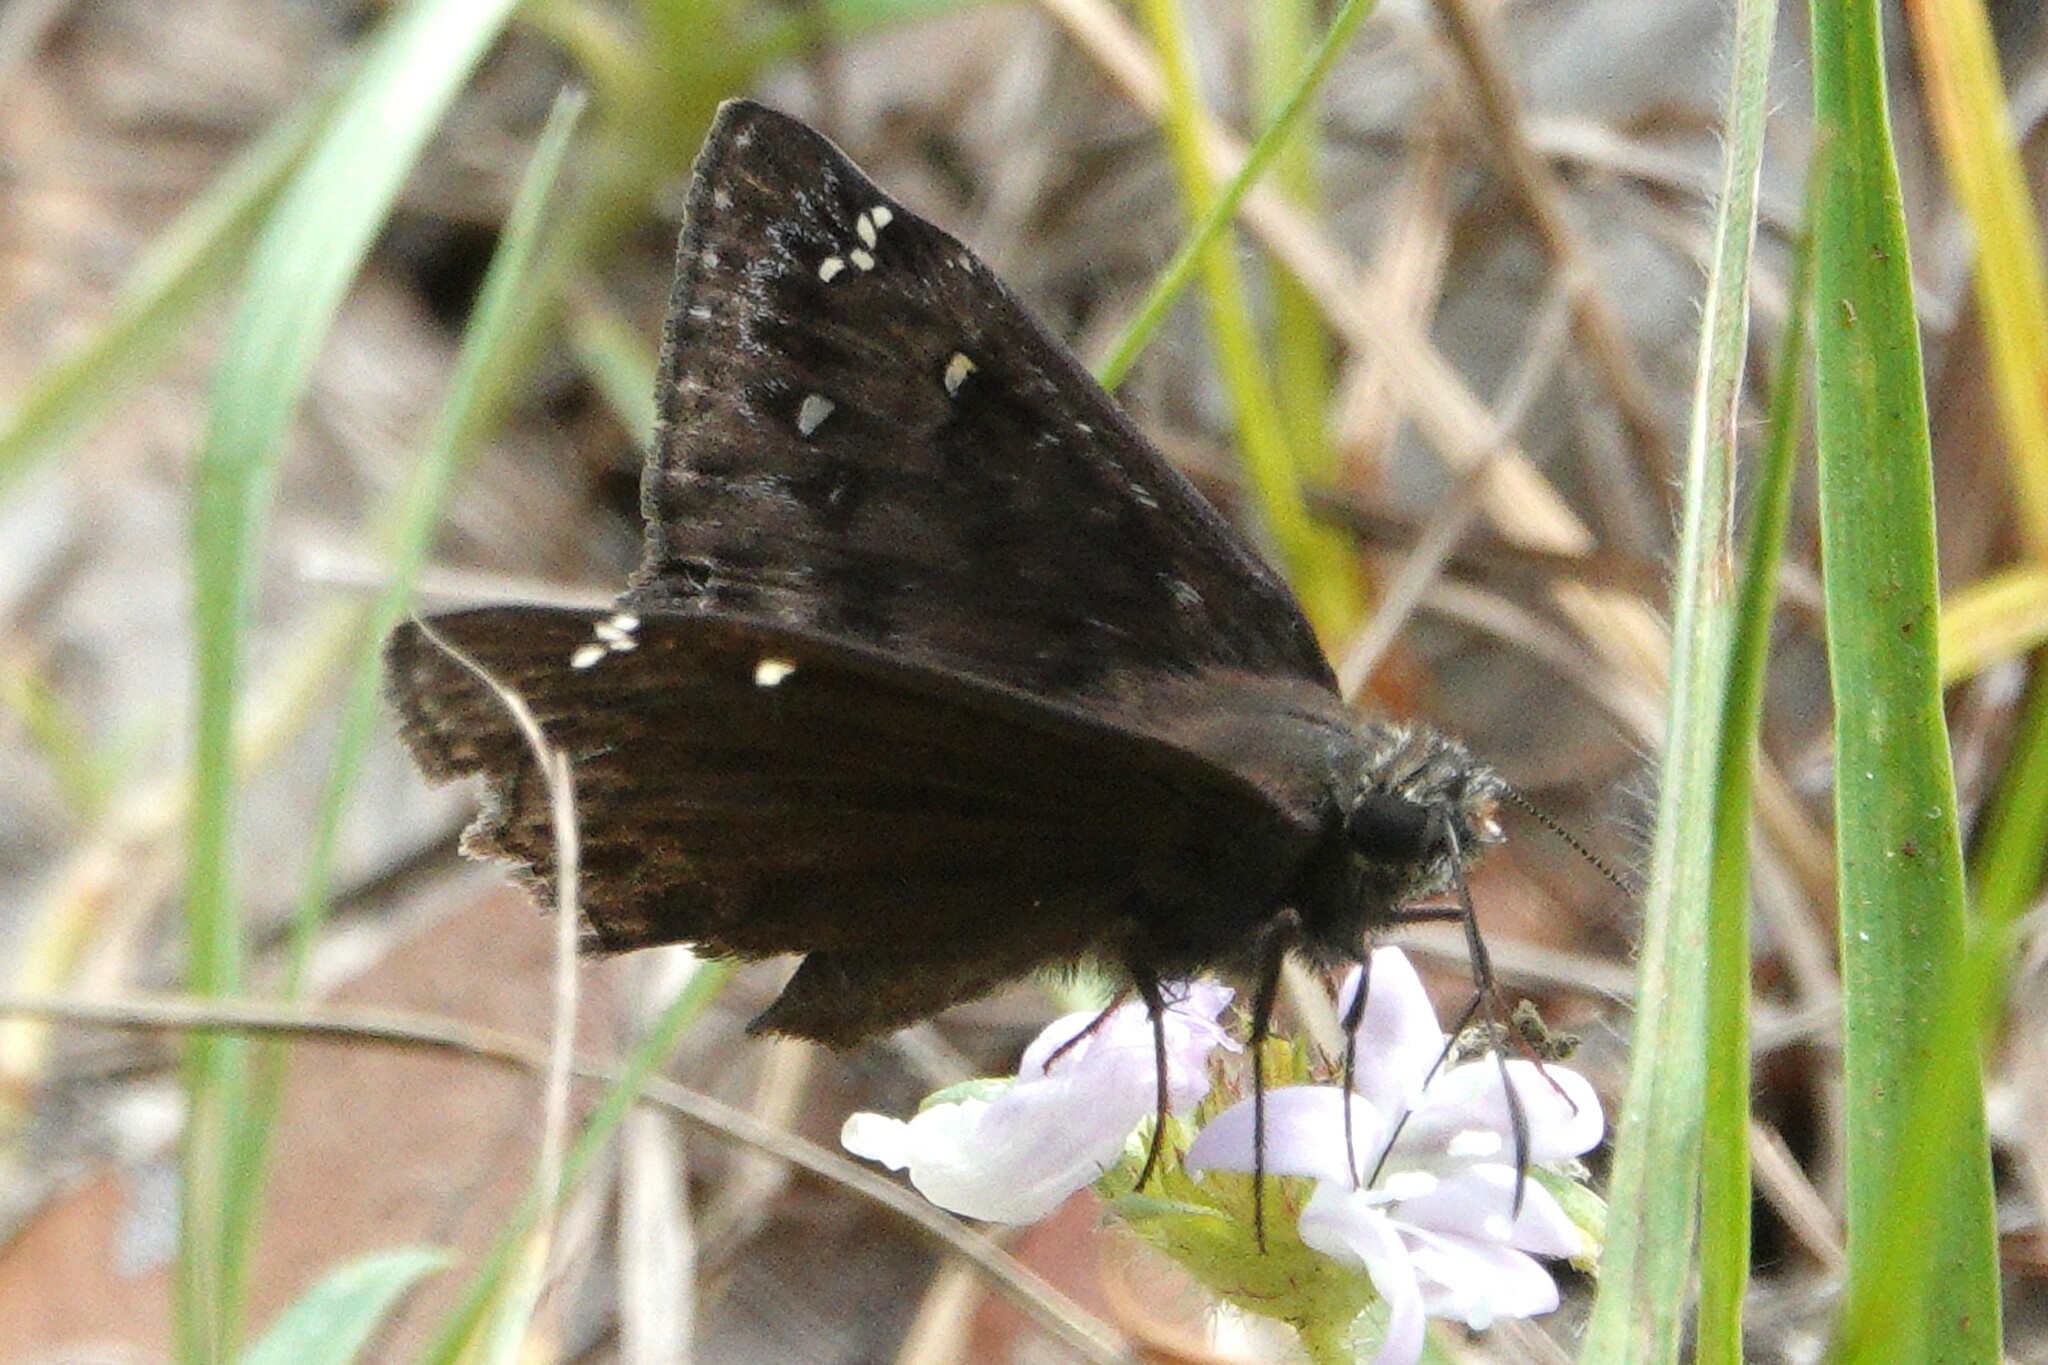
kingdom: Animalia
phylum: Arthropoda
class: Insecta
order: Lepidoptera
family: Hesperiidae
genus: Erynnis
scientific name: Erynnis horatius
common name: Horace's duskywing
